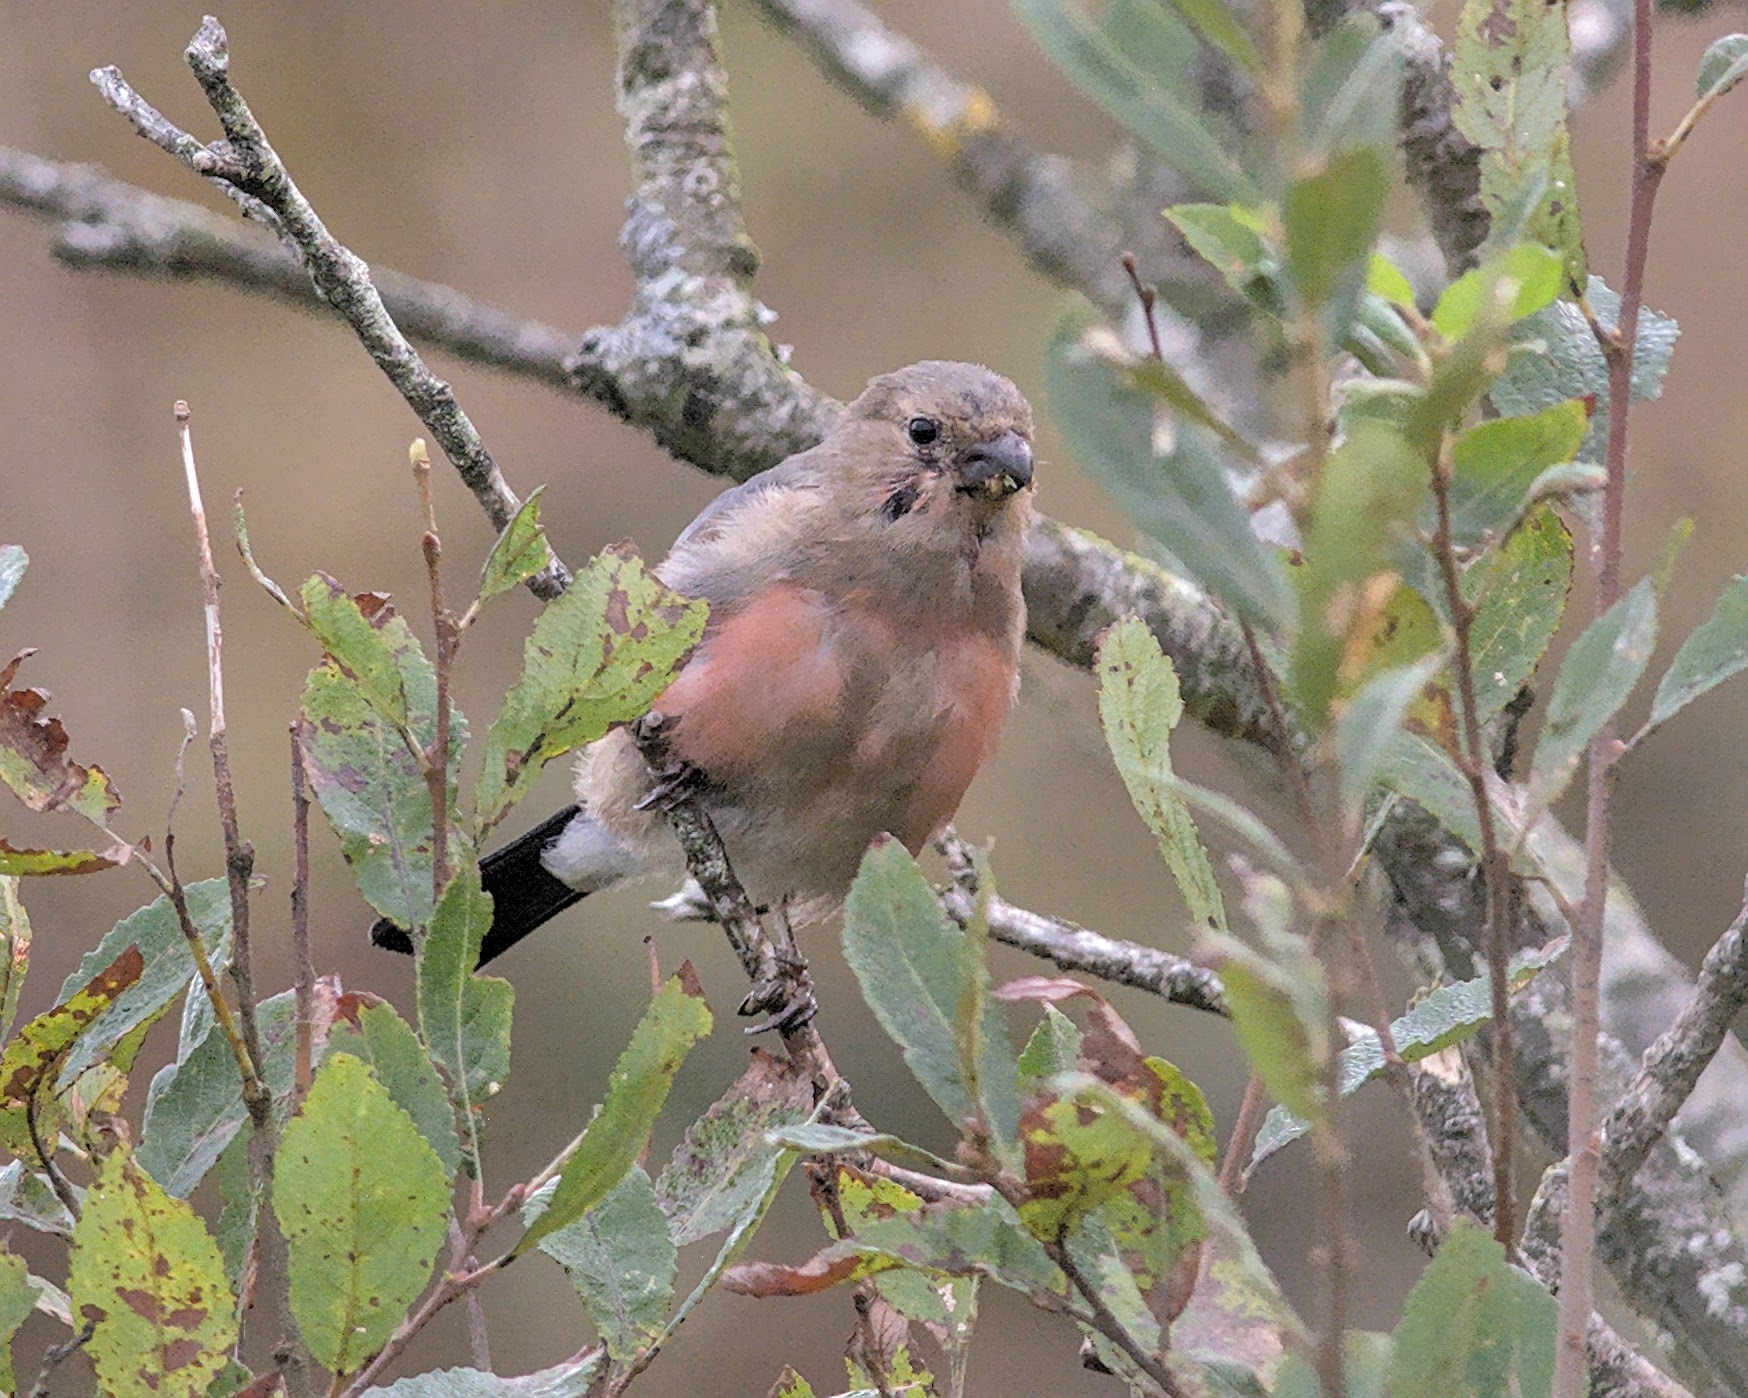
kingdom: Animalia
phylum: Chordata
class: Aves
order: Passeriformes
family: Fringillidae
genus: Pyrrhula
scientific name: Pyrrhula pyrrhula
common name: Eurasian bullfinch
